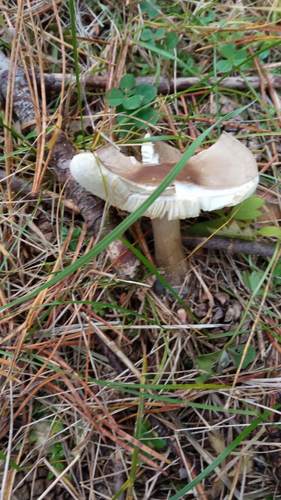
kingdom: Fungi
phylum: Basidiomycota
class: Agaricomycetes
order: Agaricales
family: Tricholomataceae
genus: Melanoleuca
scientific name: Melanoleuca
